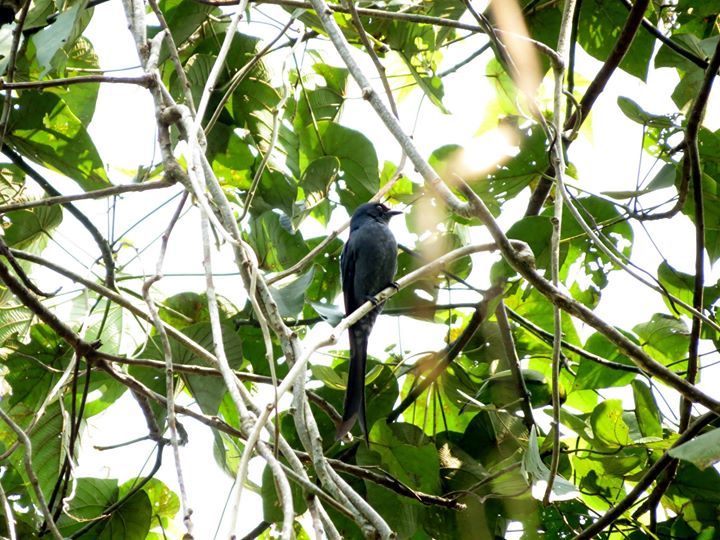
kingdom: Animalia
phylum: Chordata
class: Aves
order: Passeriformes
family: Dicruridae
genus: Dicrurus
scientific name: Dicrurus leucophaeus
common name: Ashy drongo
